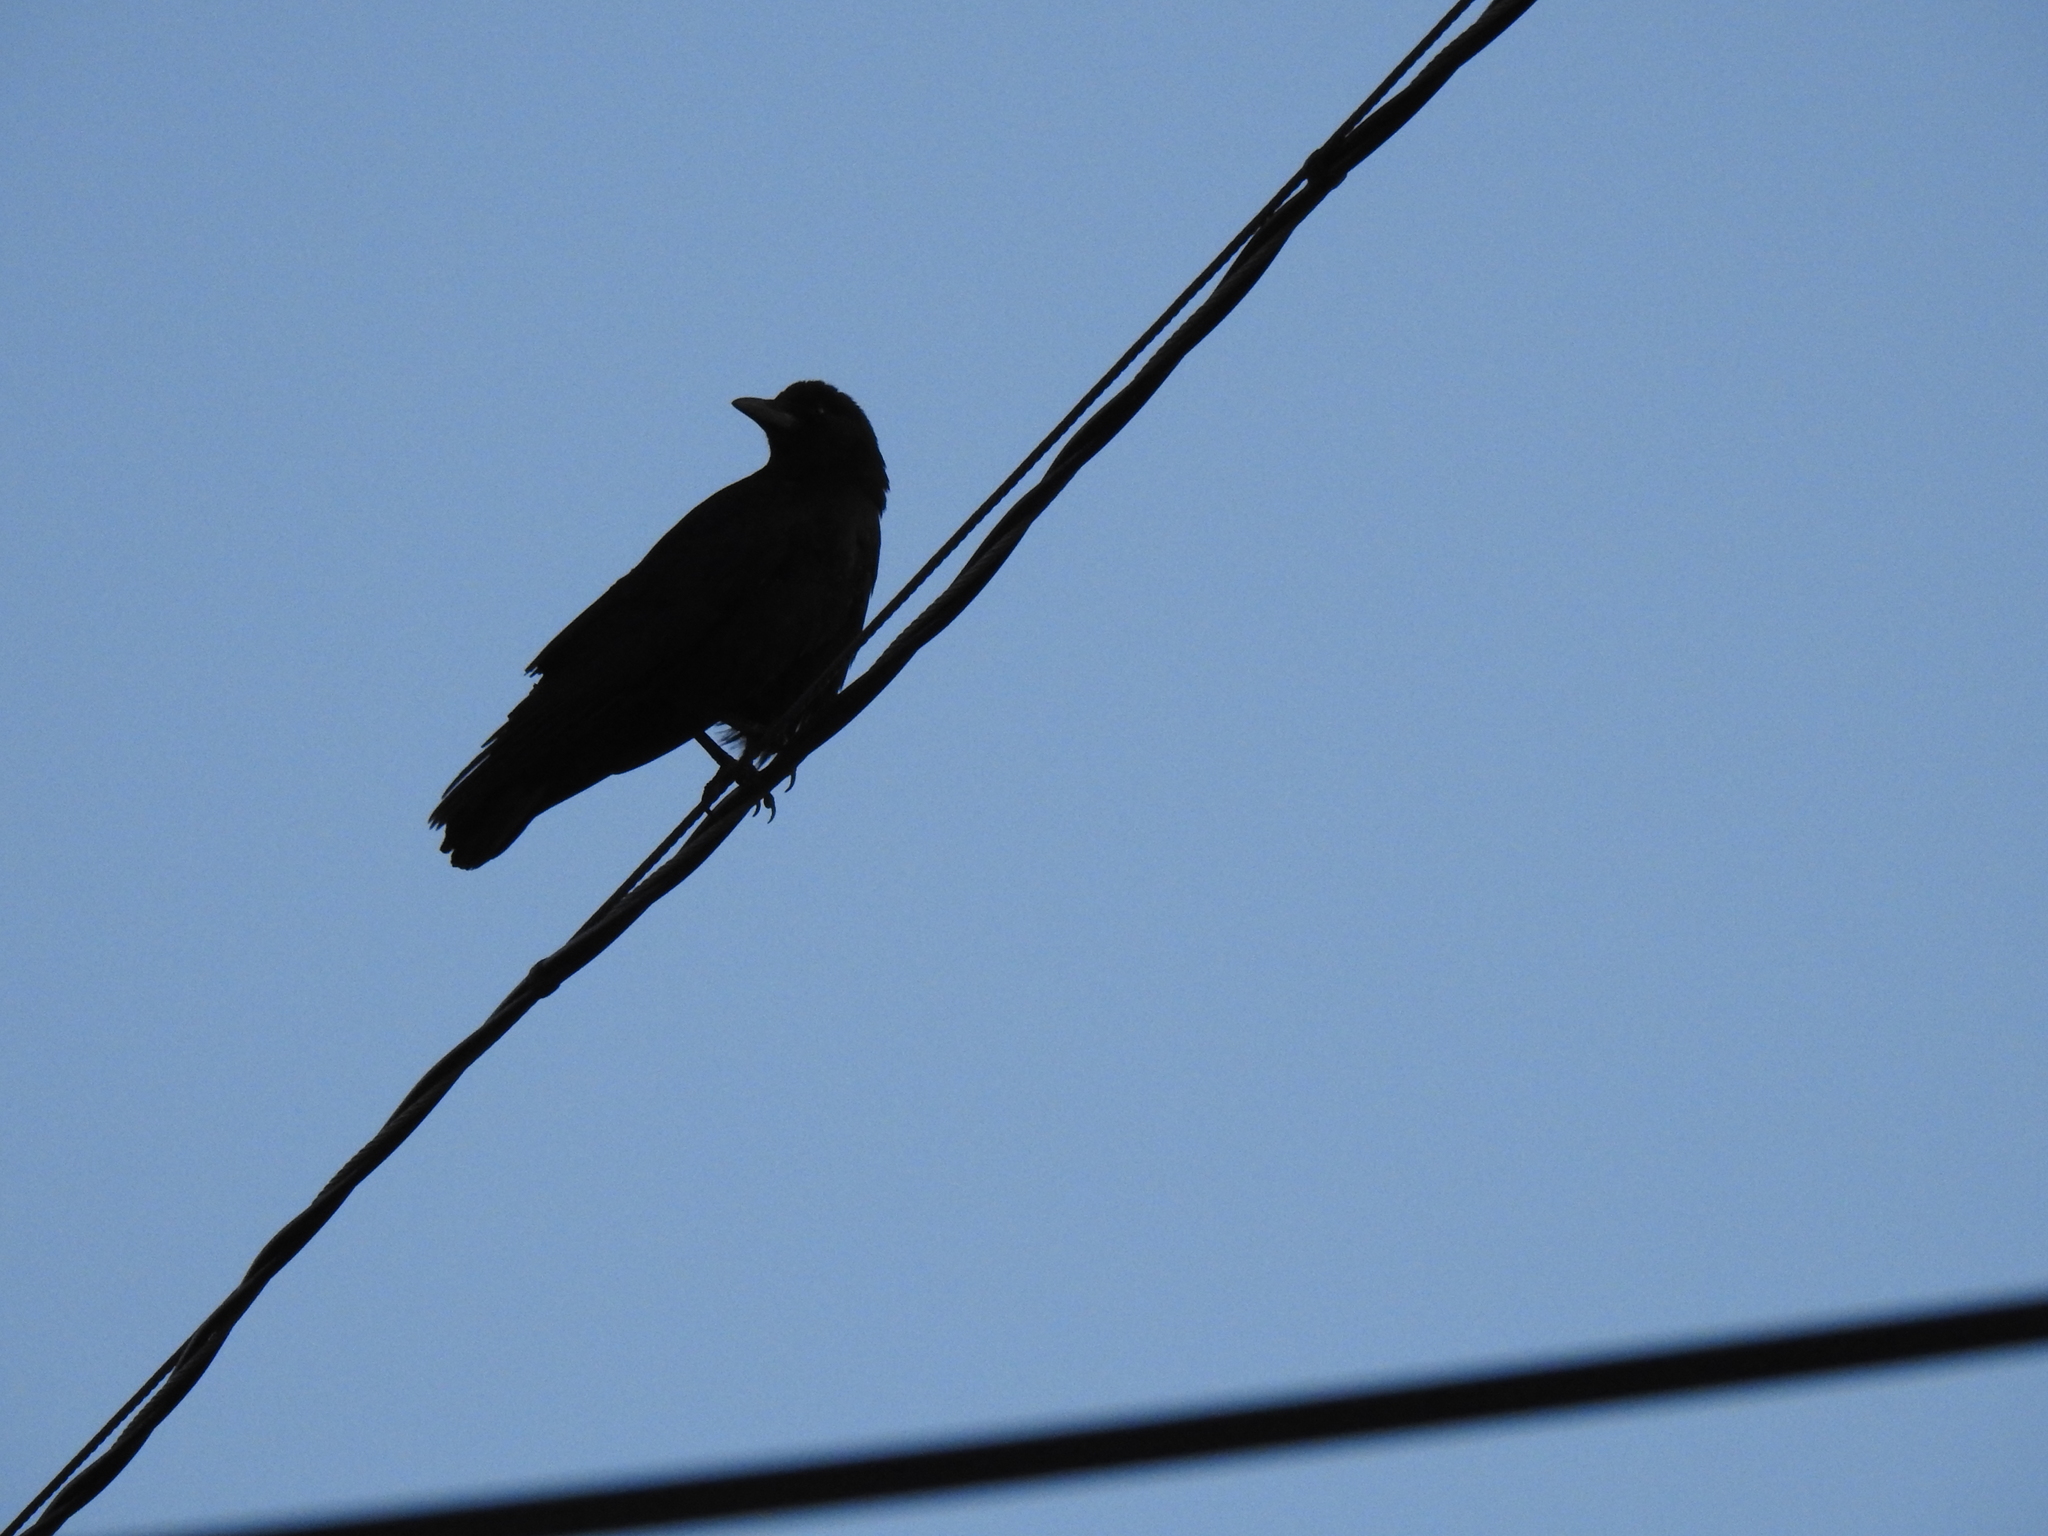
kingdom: Animalia
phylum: Chordata
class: Aves
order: Passeriformes
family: Corvidae
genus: Corvus
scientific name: Corvus brachyrhynchos
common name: American crow
